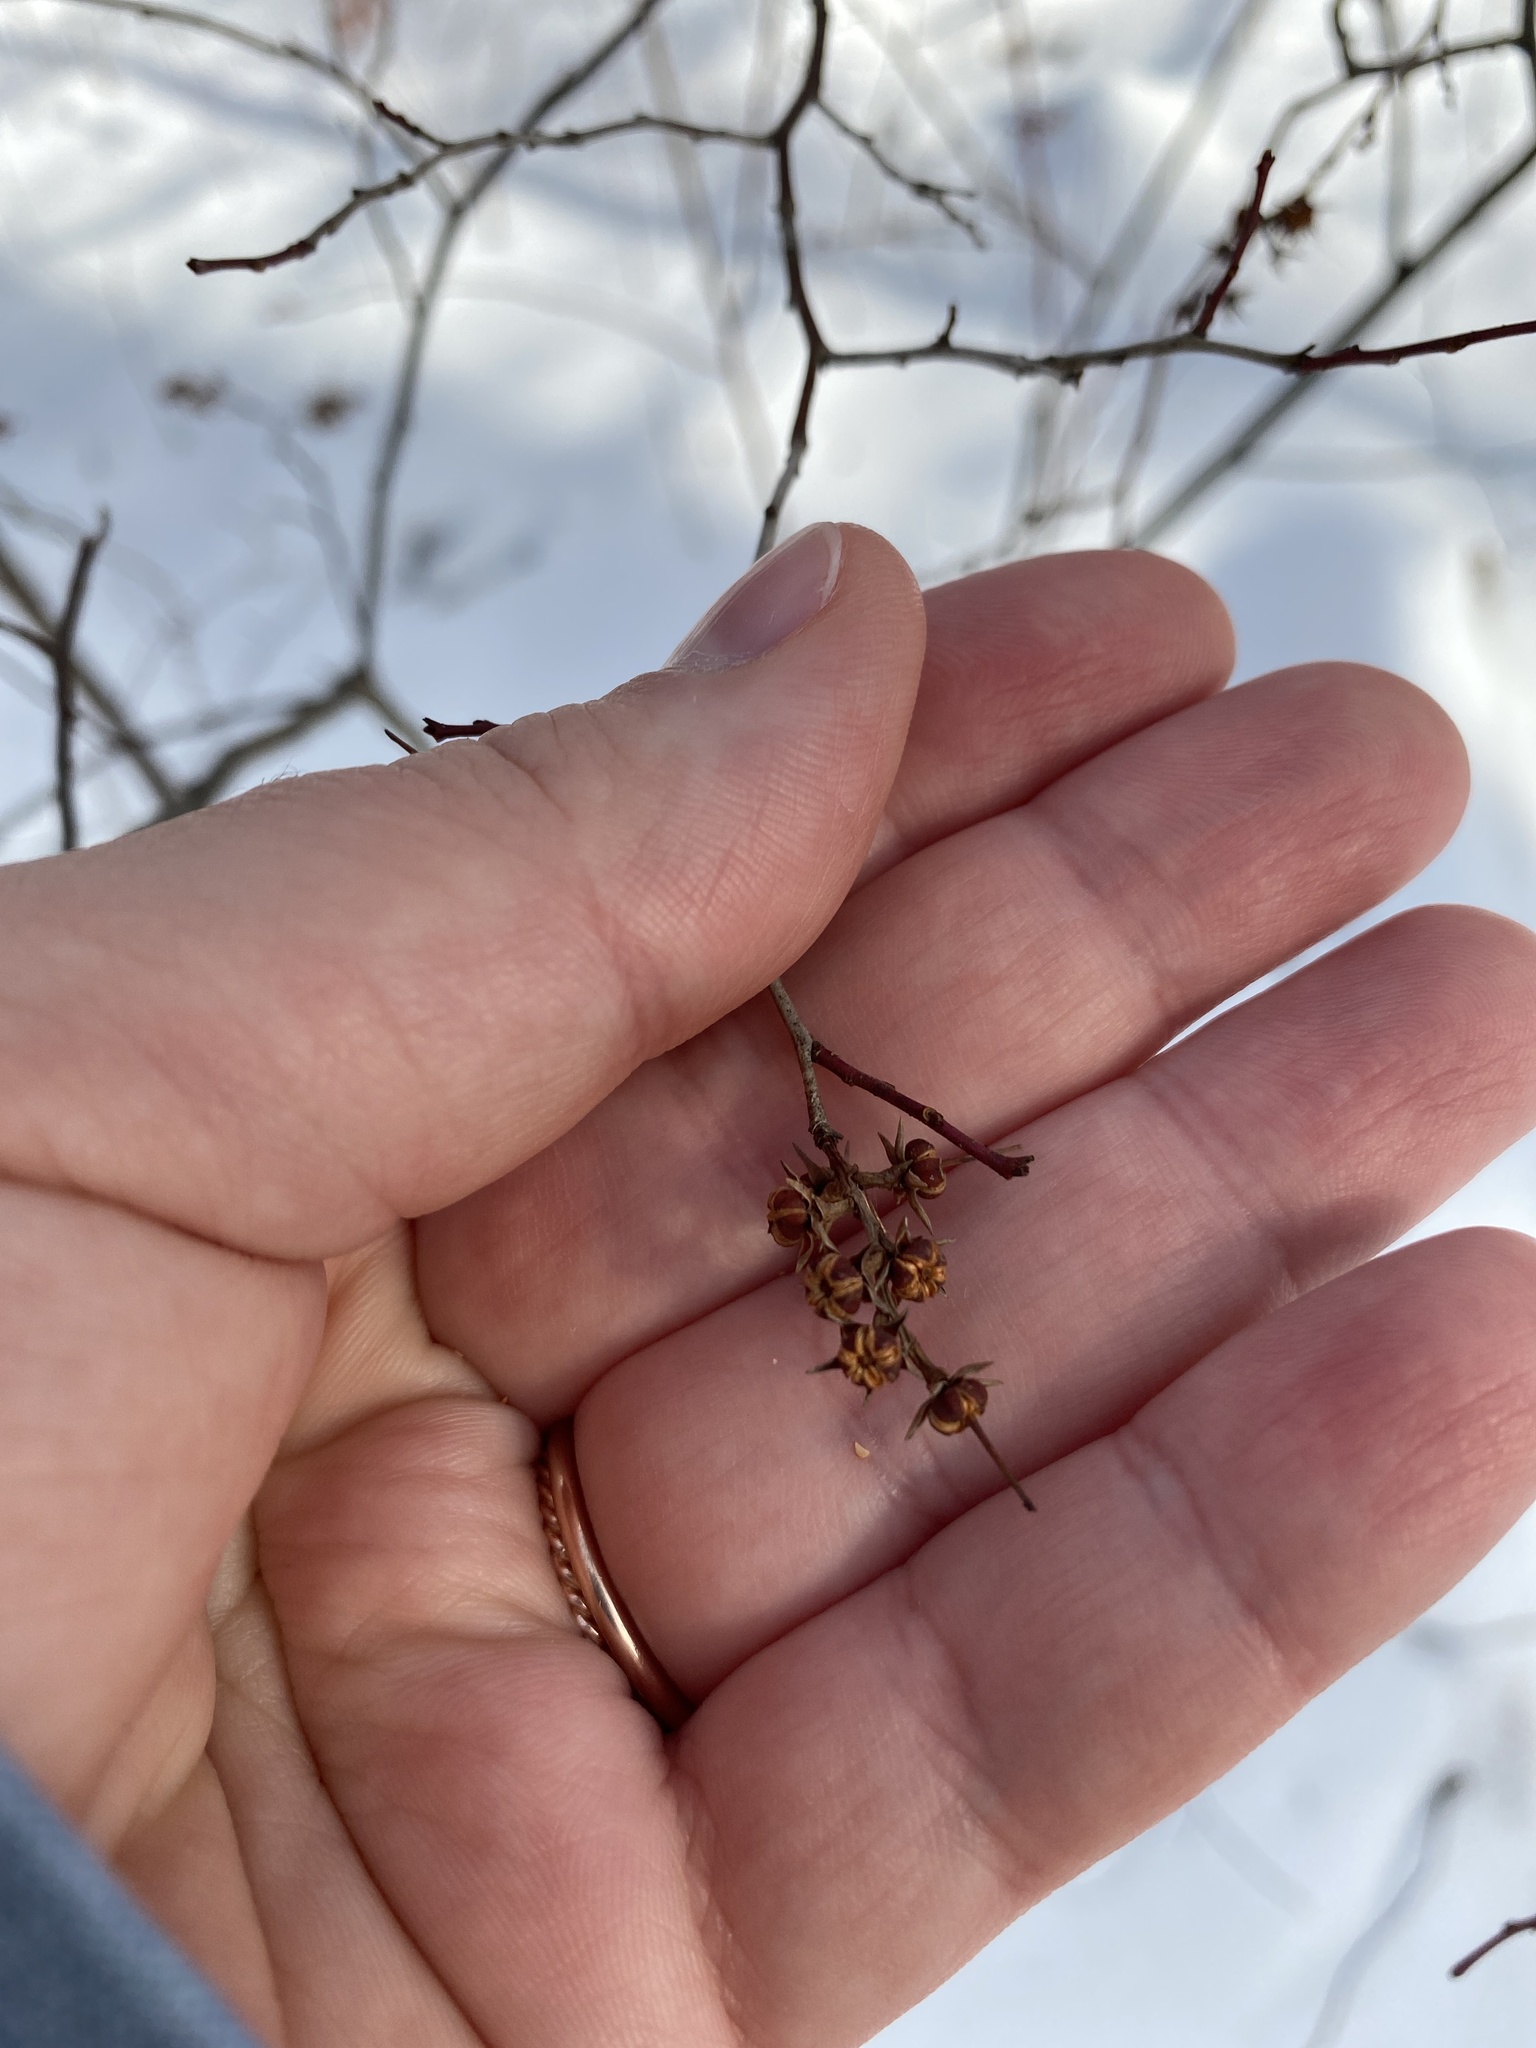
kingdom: Plantae
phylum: Tracheophyta
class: Magnoliopsida
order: Ericales
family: Ericaceae
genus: Eubotrys
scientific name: Eubotrys racemosa
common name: Fetterbush
